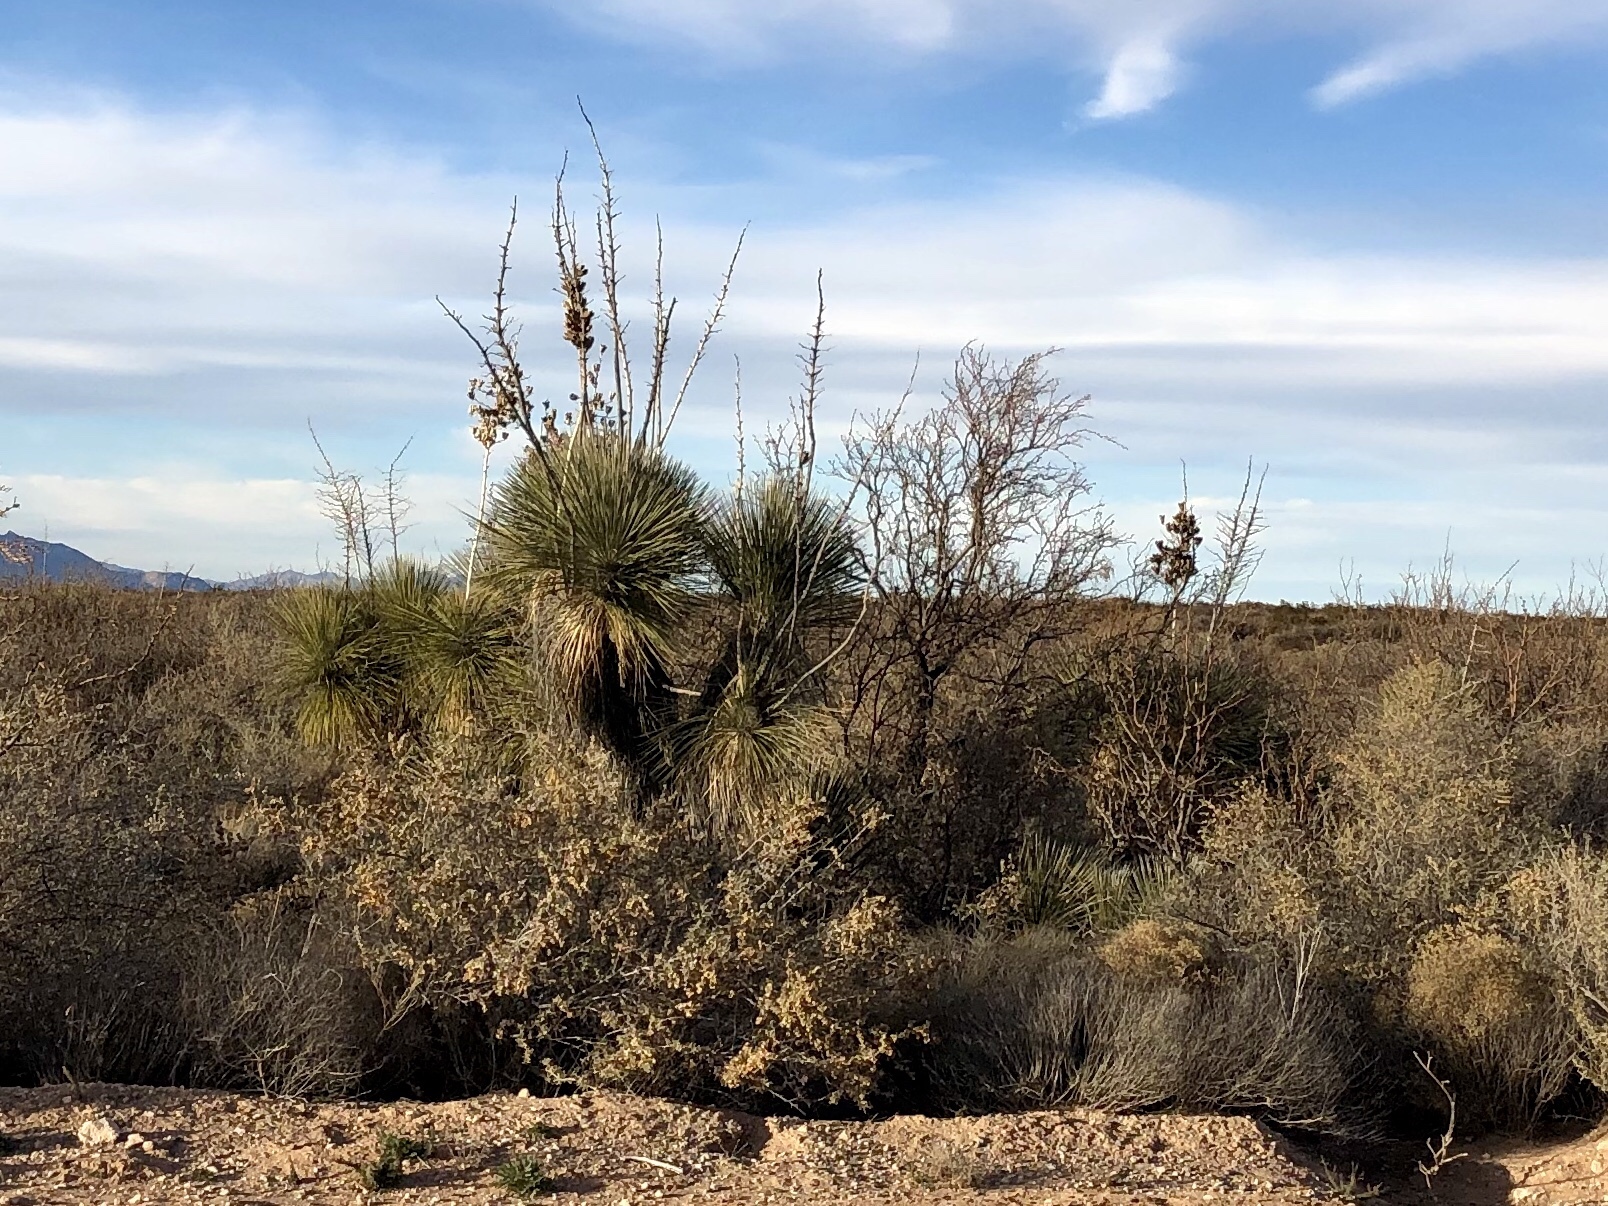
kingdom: Plantae
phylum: Tracheophyta
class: Liliopsida
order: Asparagales
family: Asparagaceae
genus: Yucca
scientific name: Yucca elata
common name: Palmella
